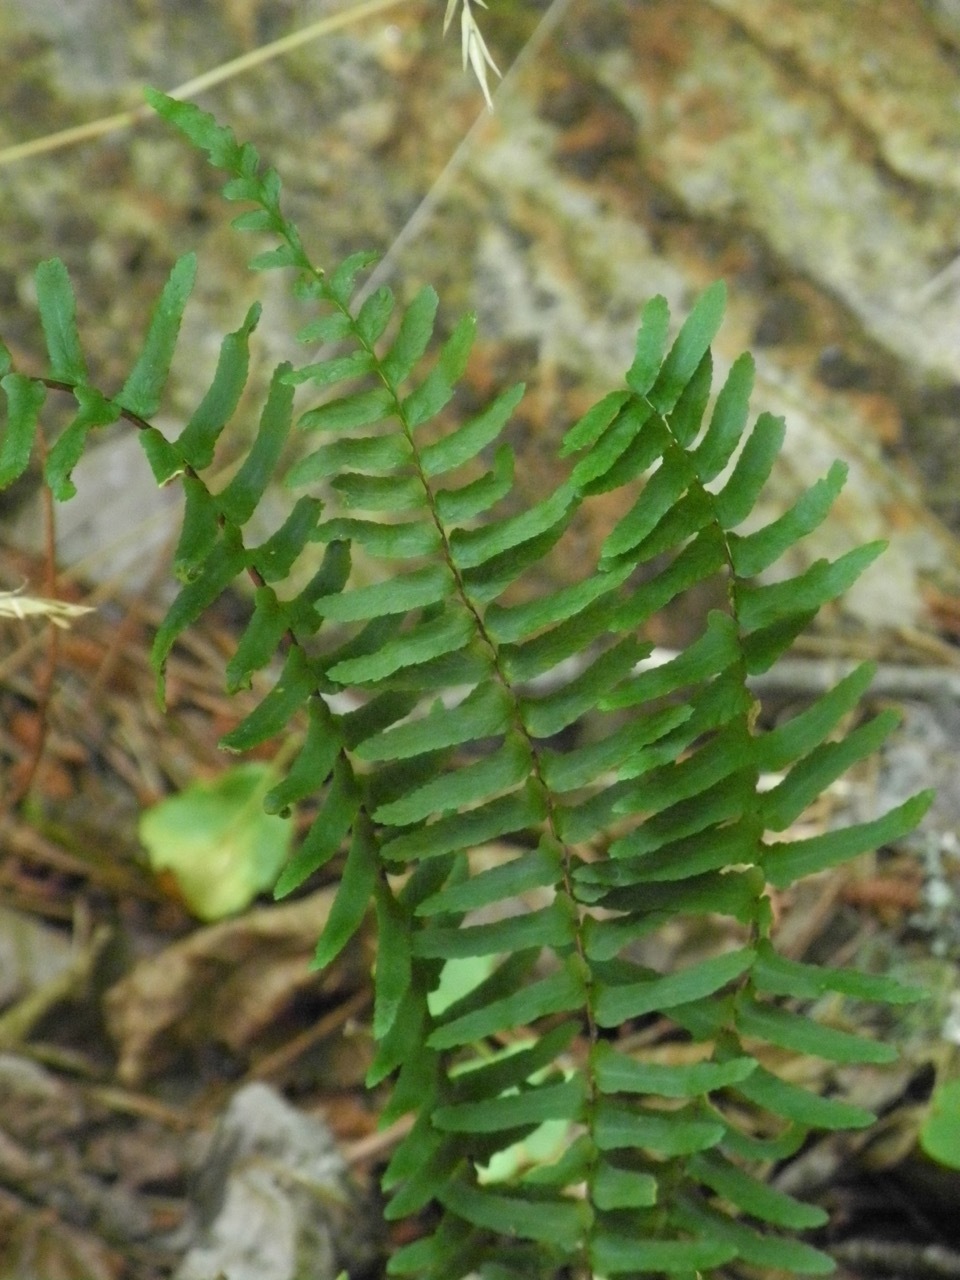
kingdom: Plantae
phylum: Tracheophyta
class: Polypodiopsida
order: Polypodiales
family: Aspleniaceae
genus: Asplenium
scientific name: Asplenium platyneuron
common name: Ebony spleenwort
